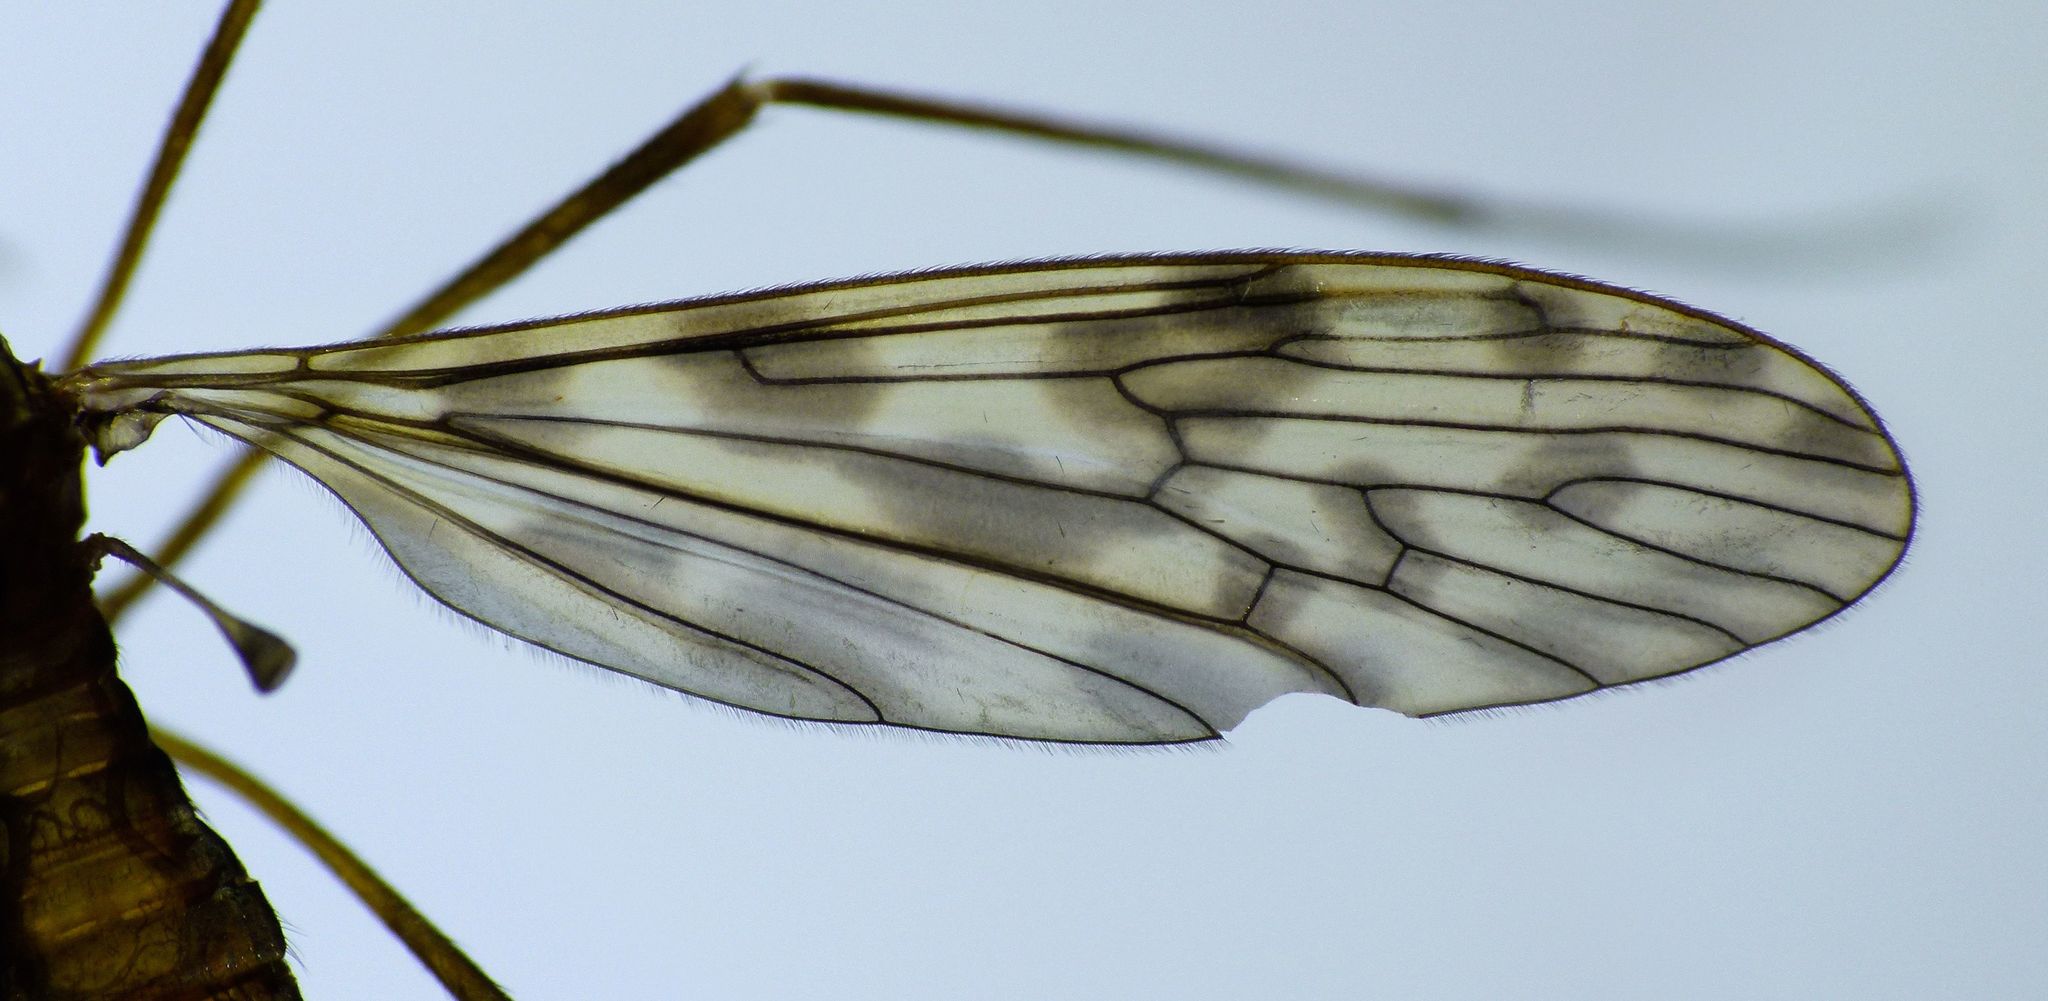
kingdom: Animalia
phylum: Arthropoda
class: Insecta
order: Diptera
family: Limoniidae
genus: Austrolimnophila
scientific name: Austrolimnophila chrysorrhoea
